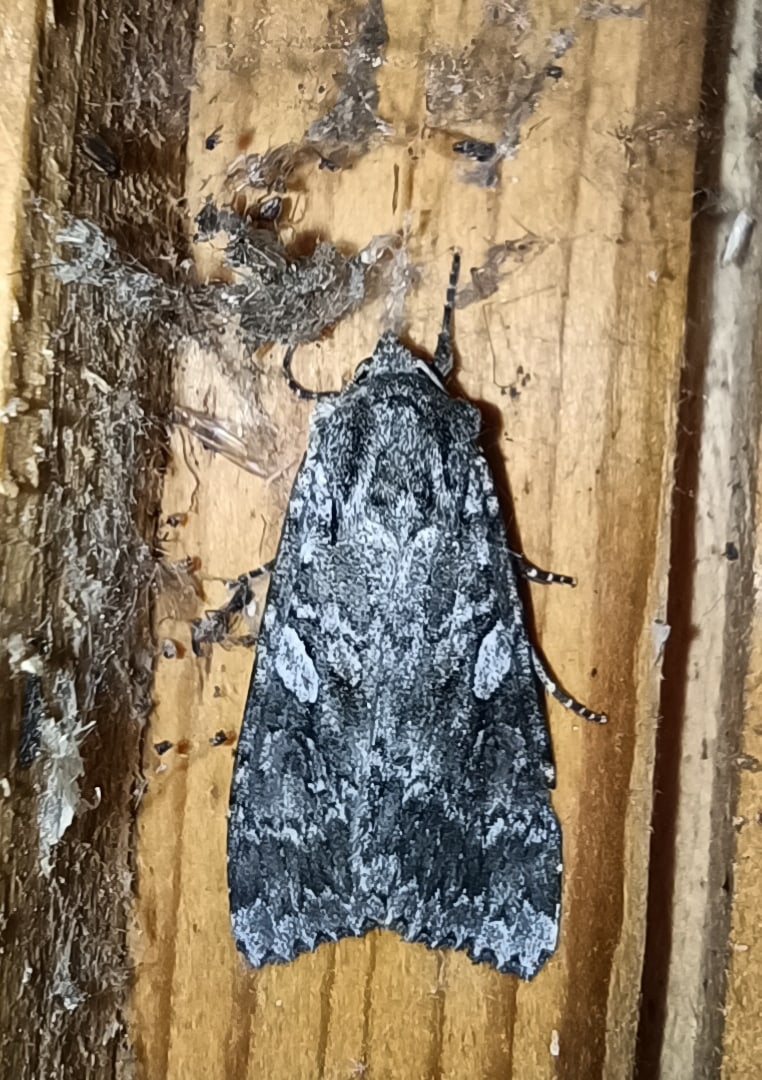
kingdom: Animalia
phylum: Arthropoda
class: Insecta
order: Lepidoptera
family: Noctuidae
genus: Eurois
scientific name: Eurois occulta
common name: Great brocade
